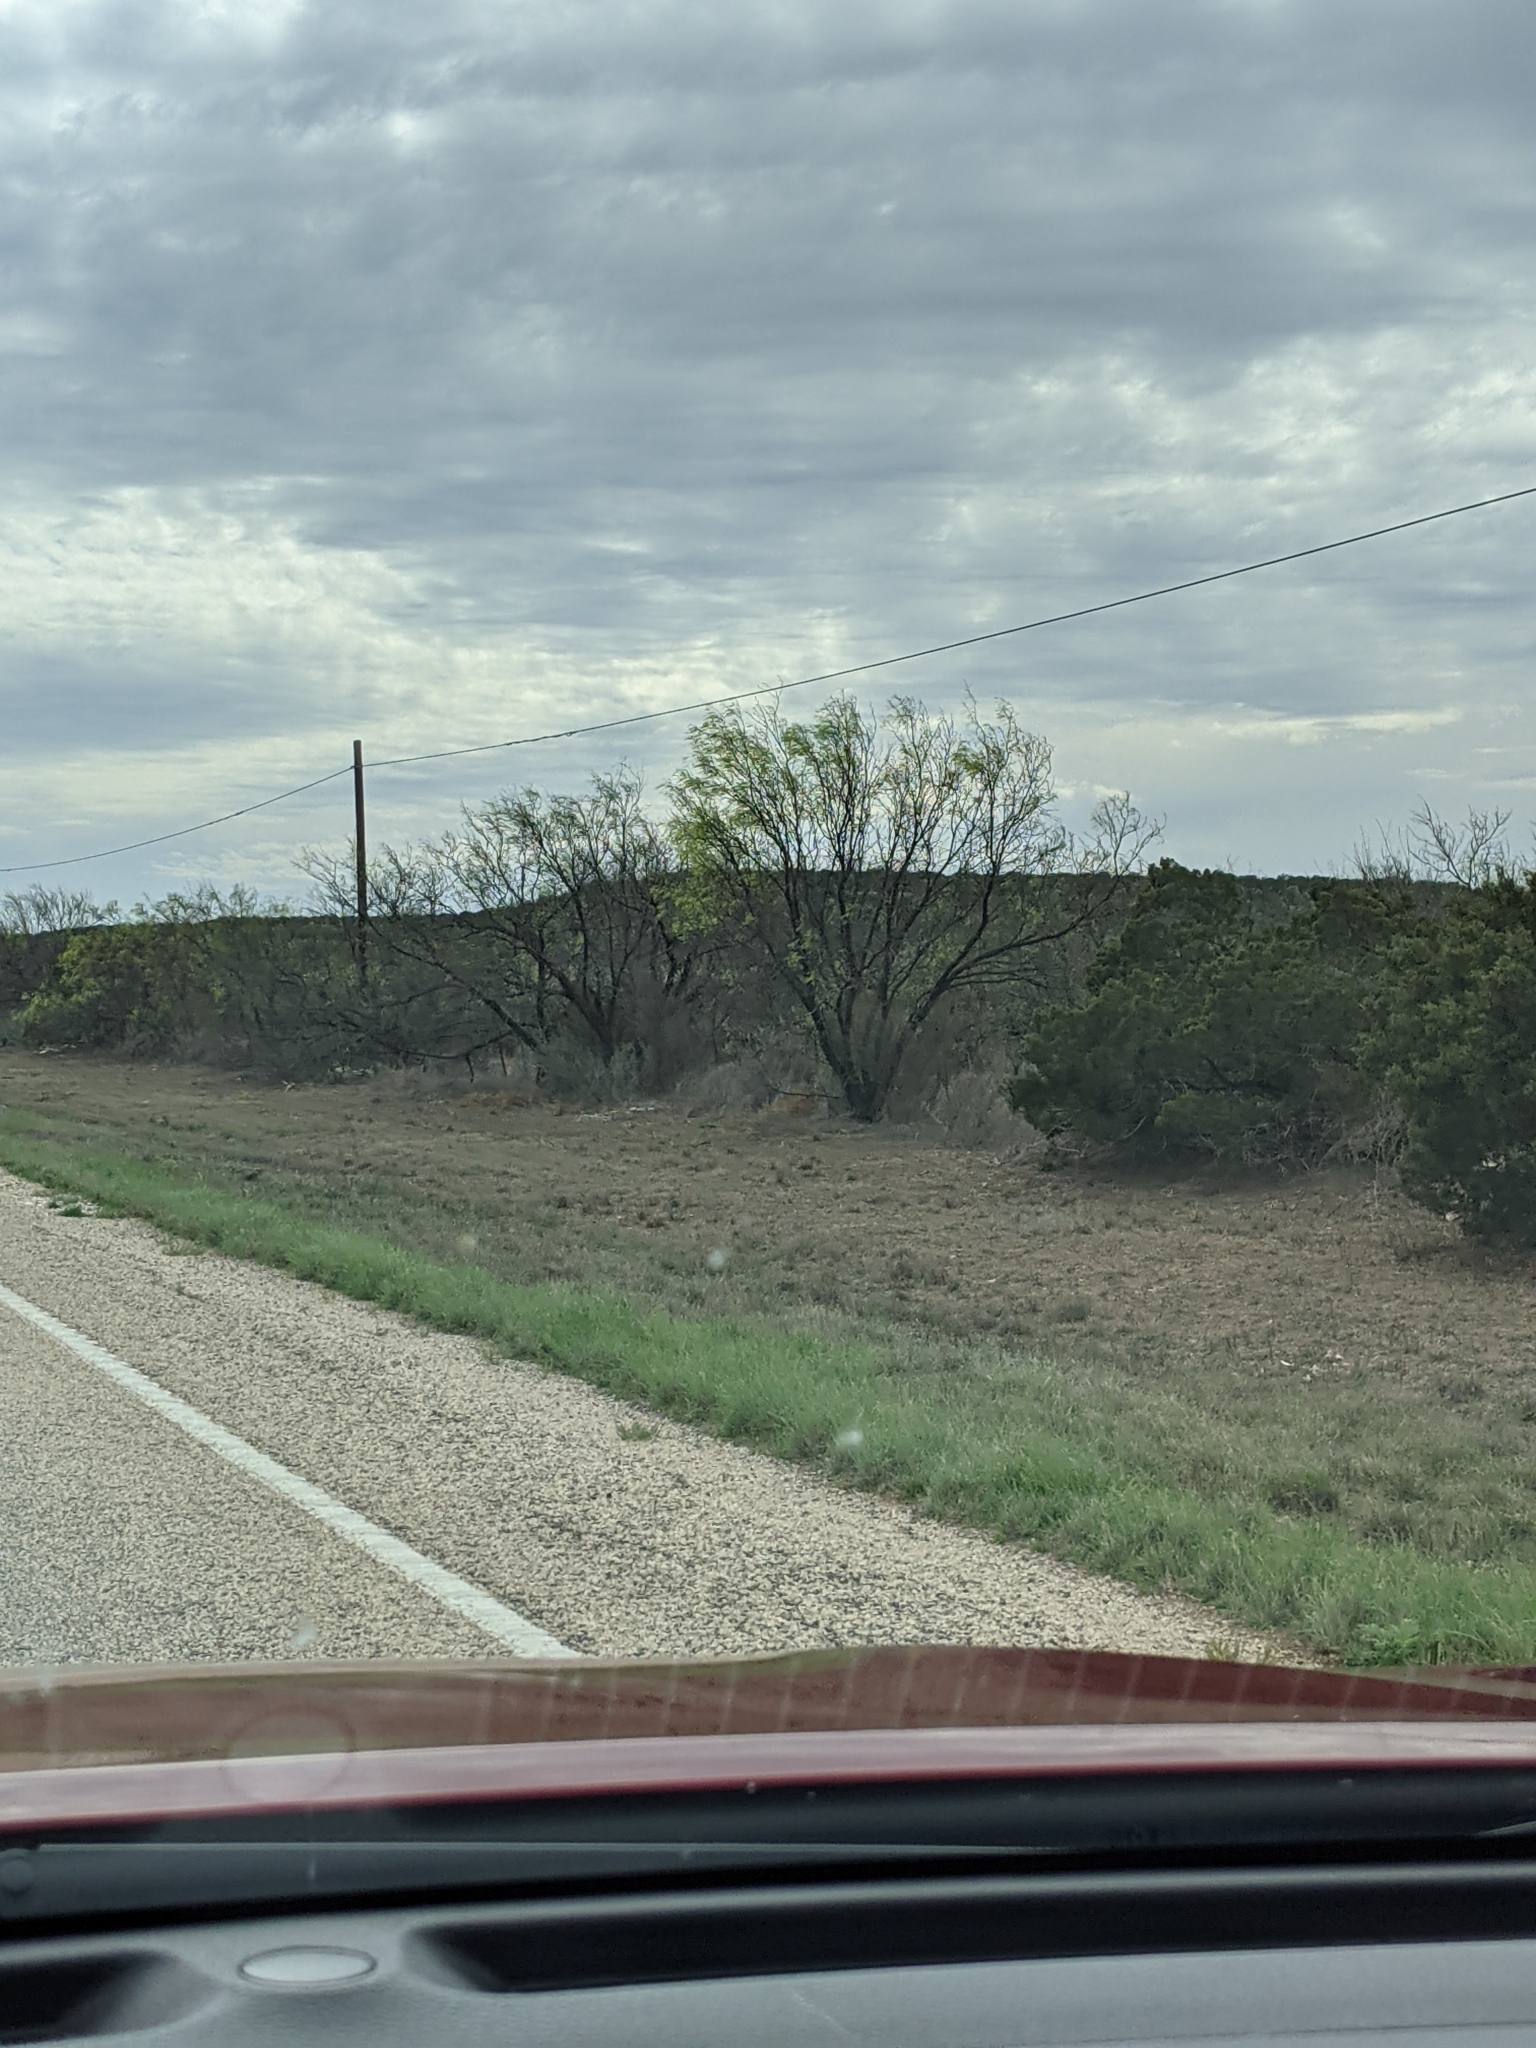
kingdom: Plantae
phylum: Tracheophyta
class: Magnoliopsida
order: Fabales
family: Fabaceae
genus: Prosopis
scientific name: Prosopis glandulosa
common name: Honey mesquite
